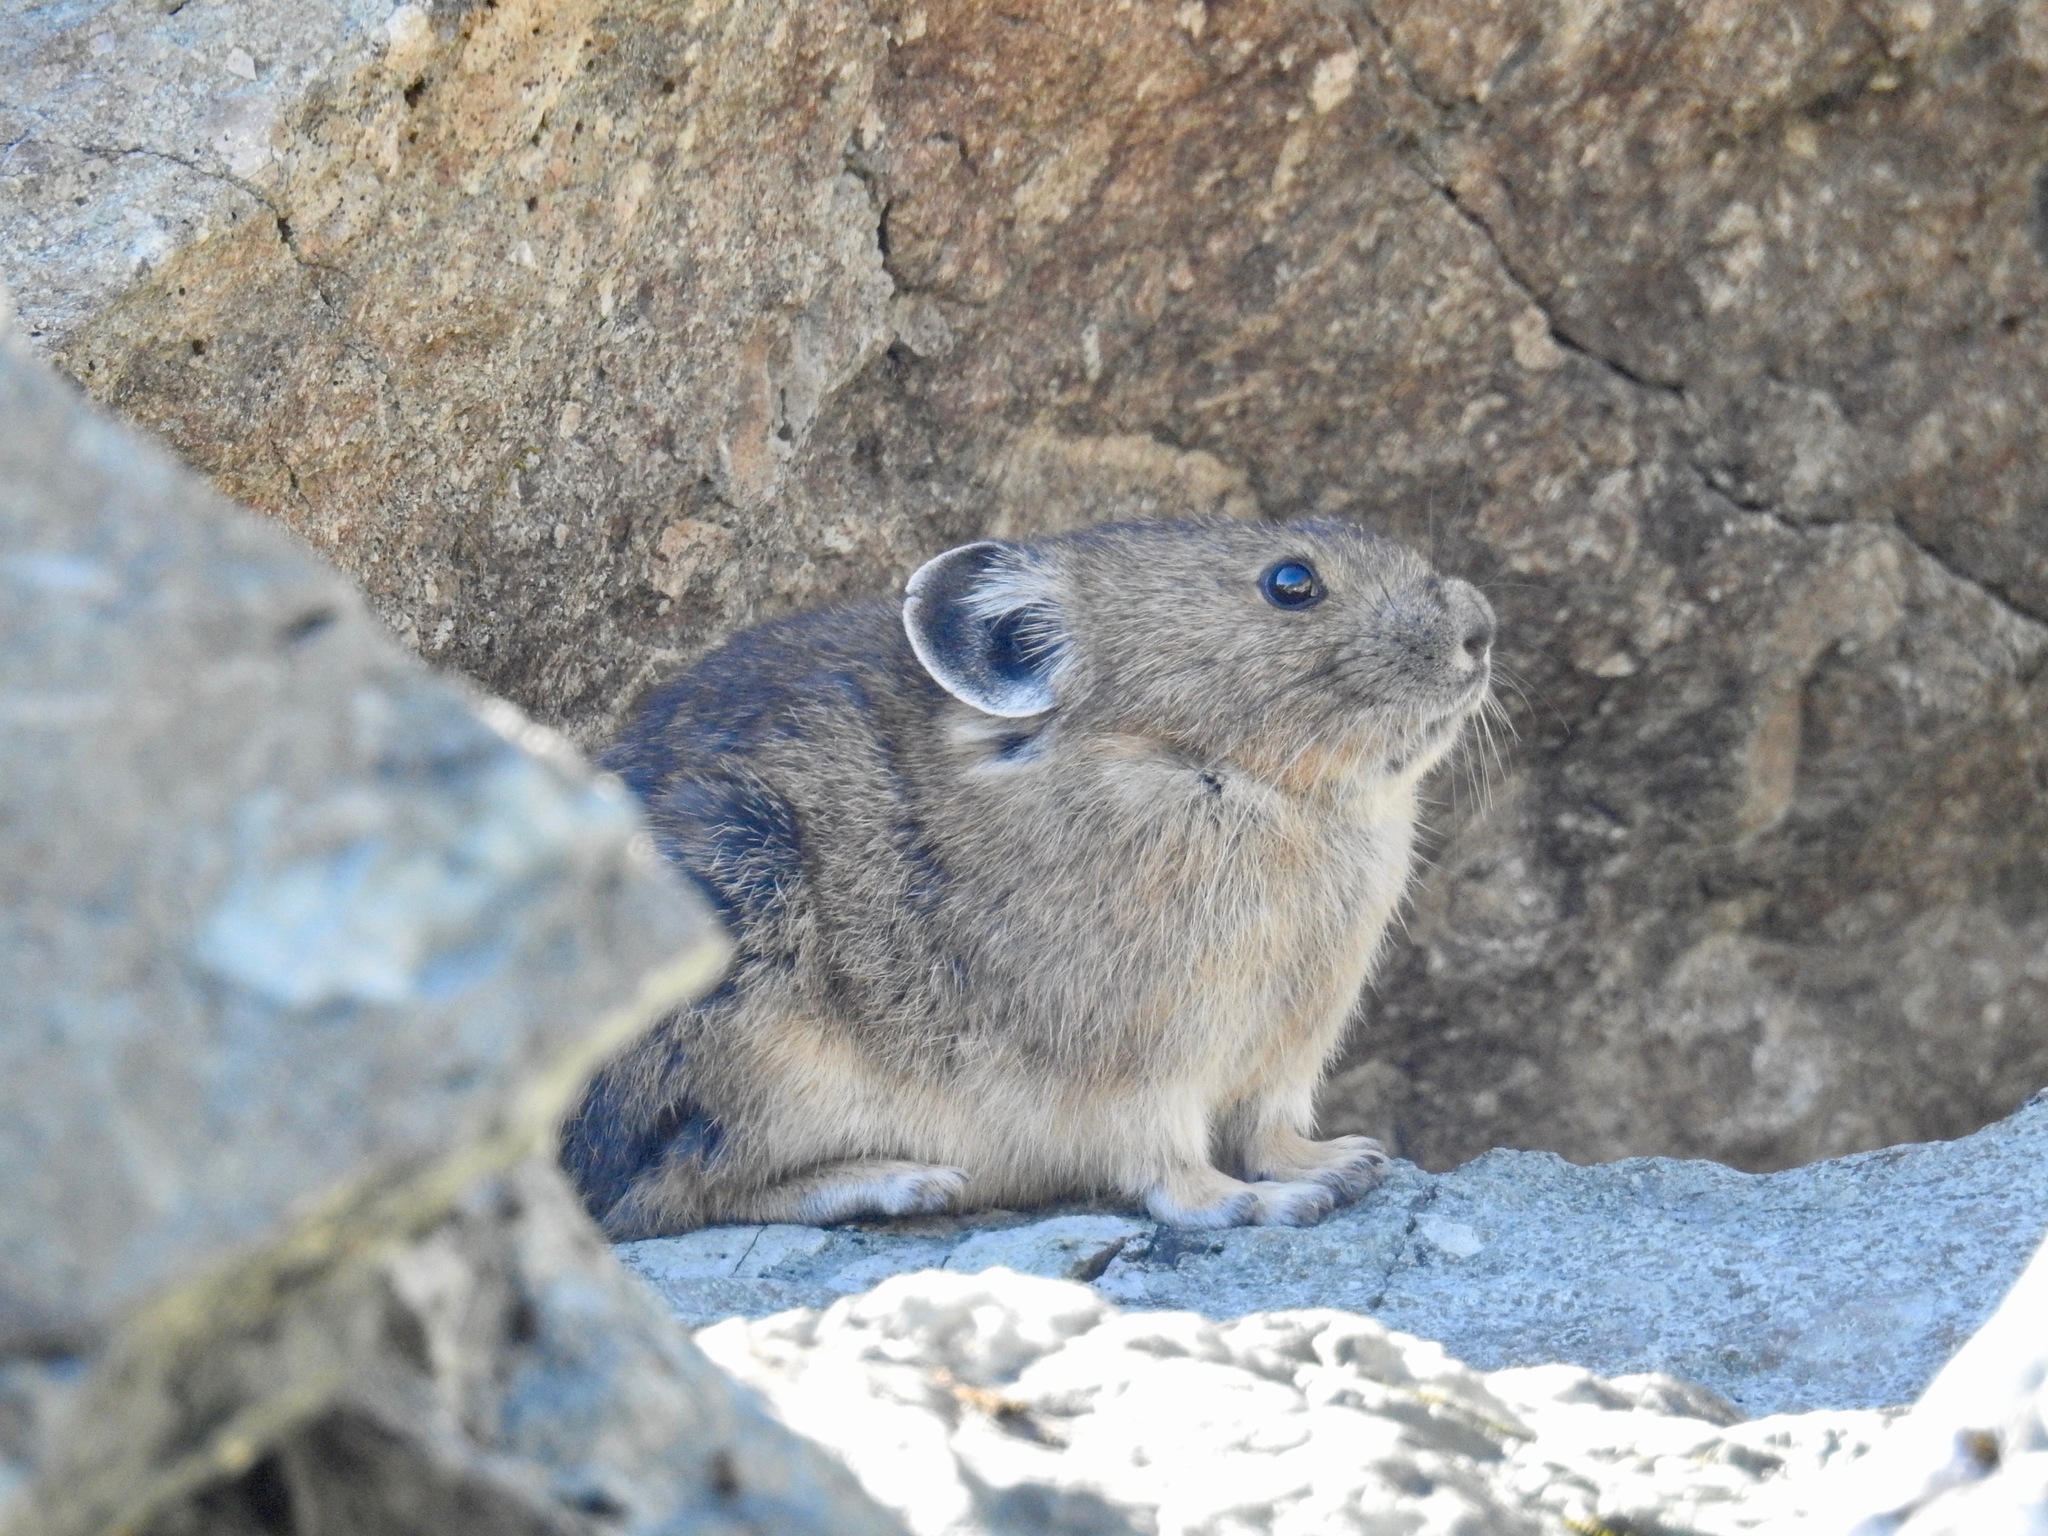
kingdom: Animalia
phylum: Chordata
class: Mammalia
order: Lagomorpha
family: Ochotonidae
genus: Ochotona
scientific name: Ochotona princeps
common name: American pika
